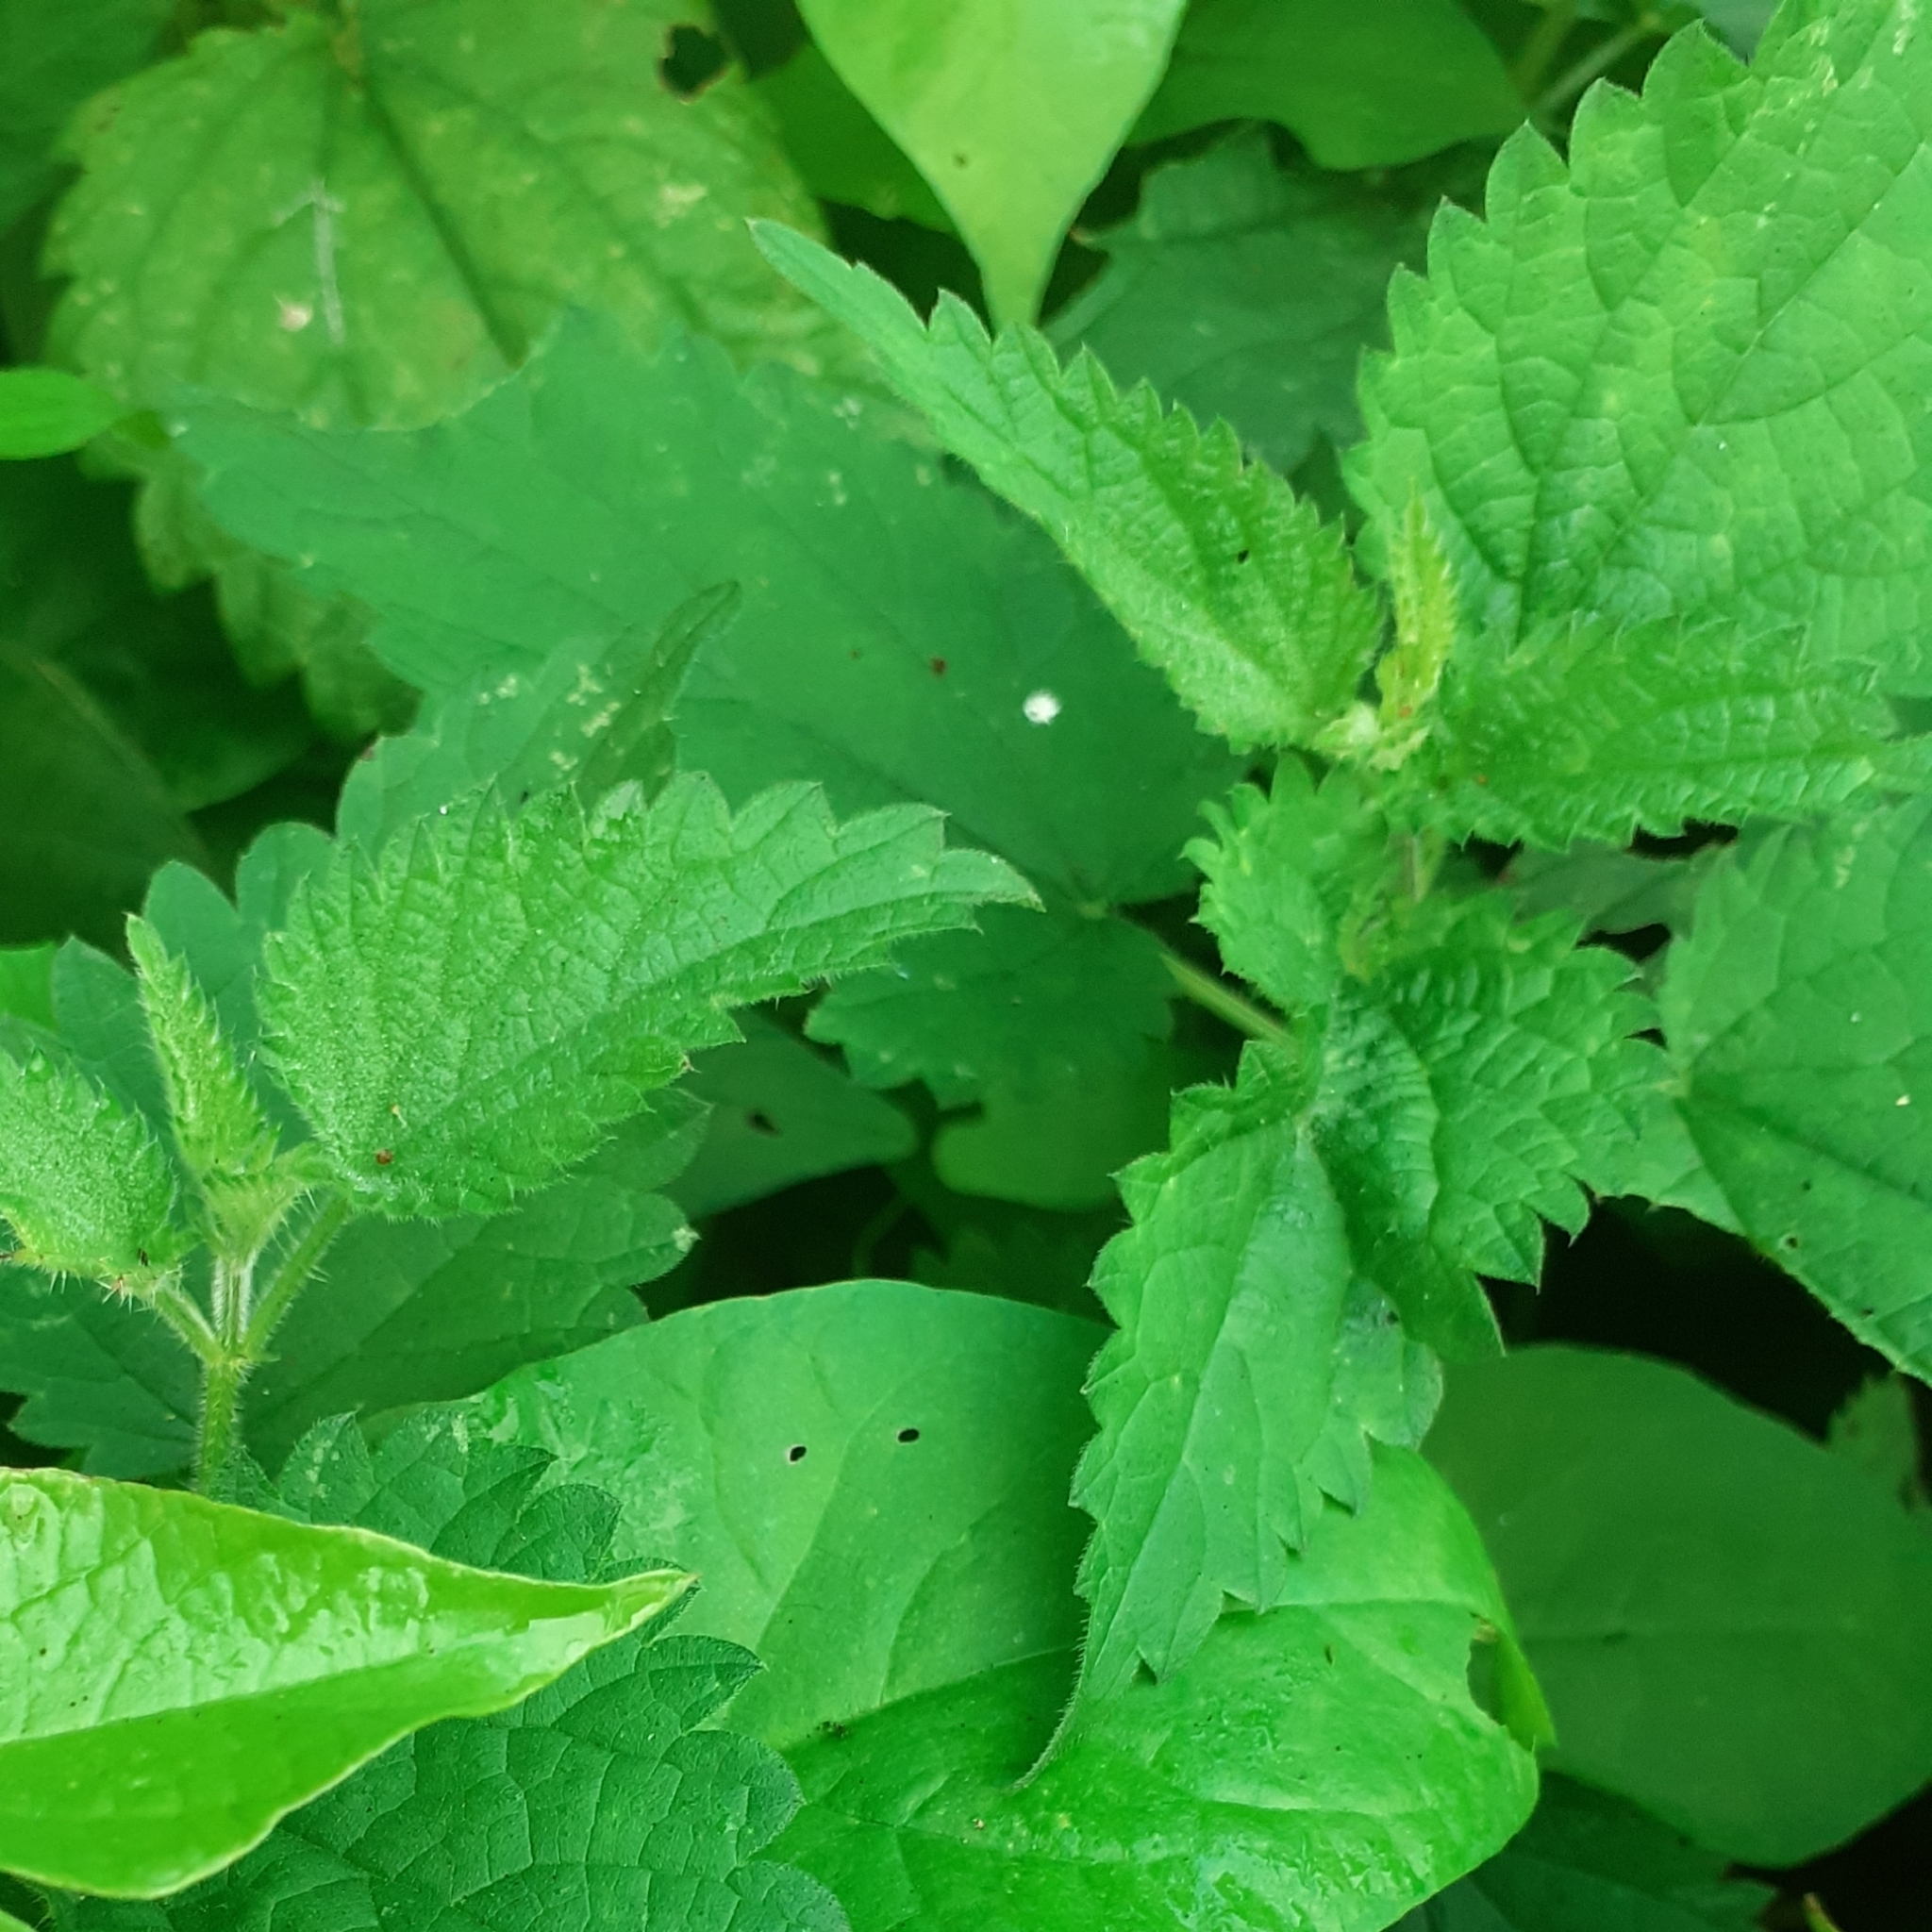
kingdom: Plantae
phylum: Tracheophyta
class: Magnoliopsida
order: Rosales
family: Urticaceae
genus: Urtica
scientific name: Urtica dioica
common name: Common nettle
